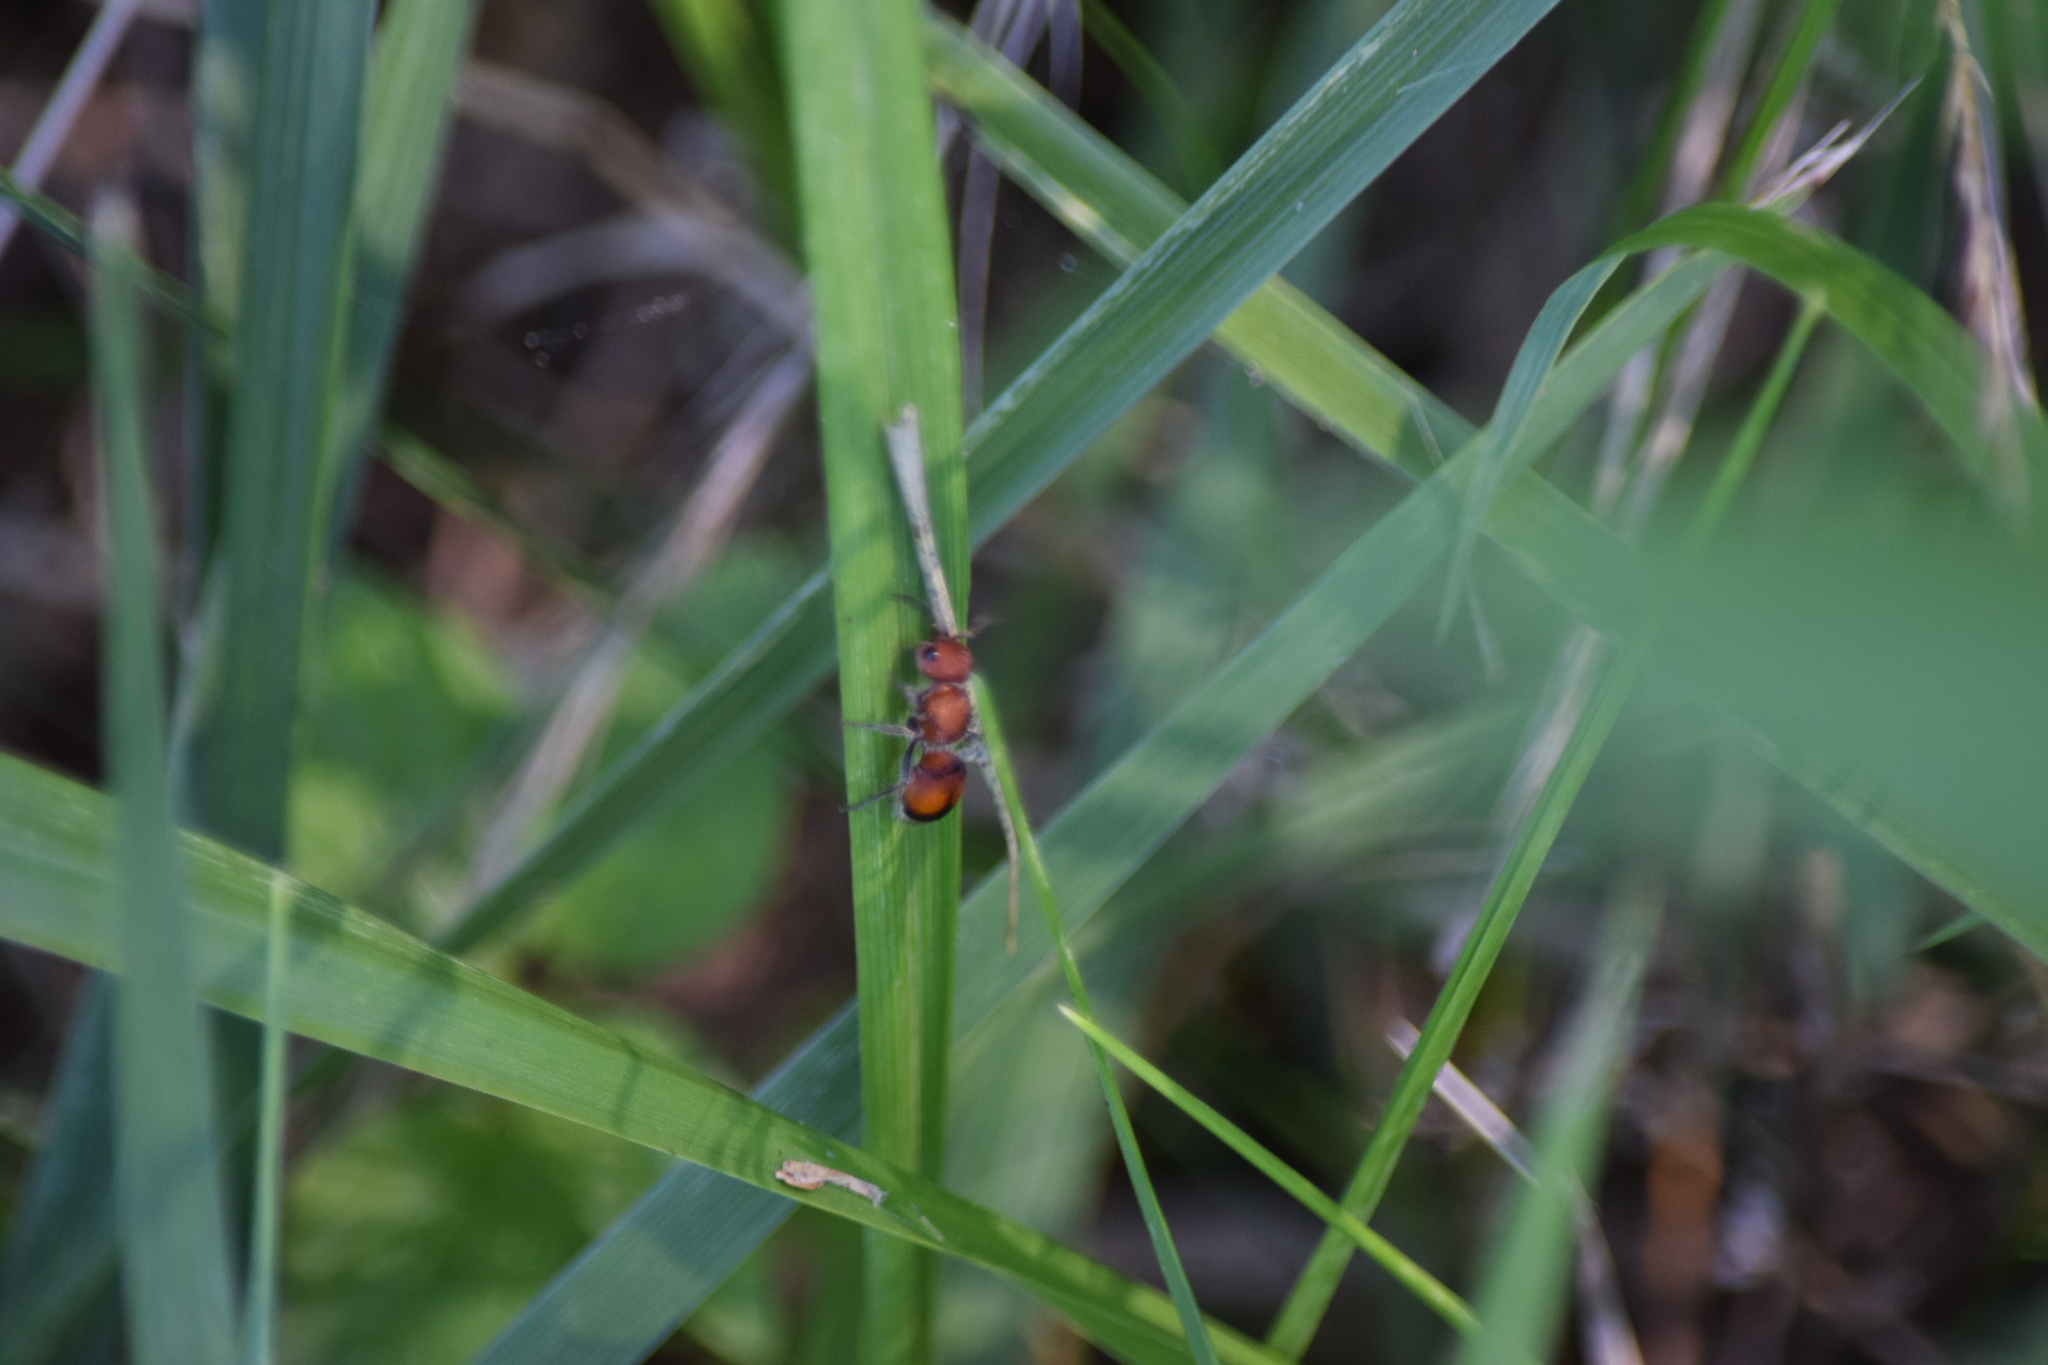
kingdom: Animalia
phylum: Arthropoda
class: Insecta
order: Hymenoptera
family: Mutillidae
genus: Pseudomethoca
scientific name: Pseudomethoca
